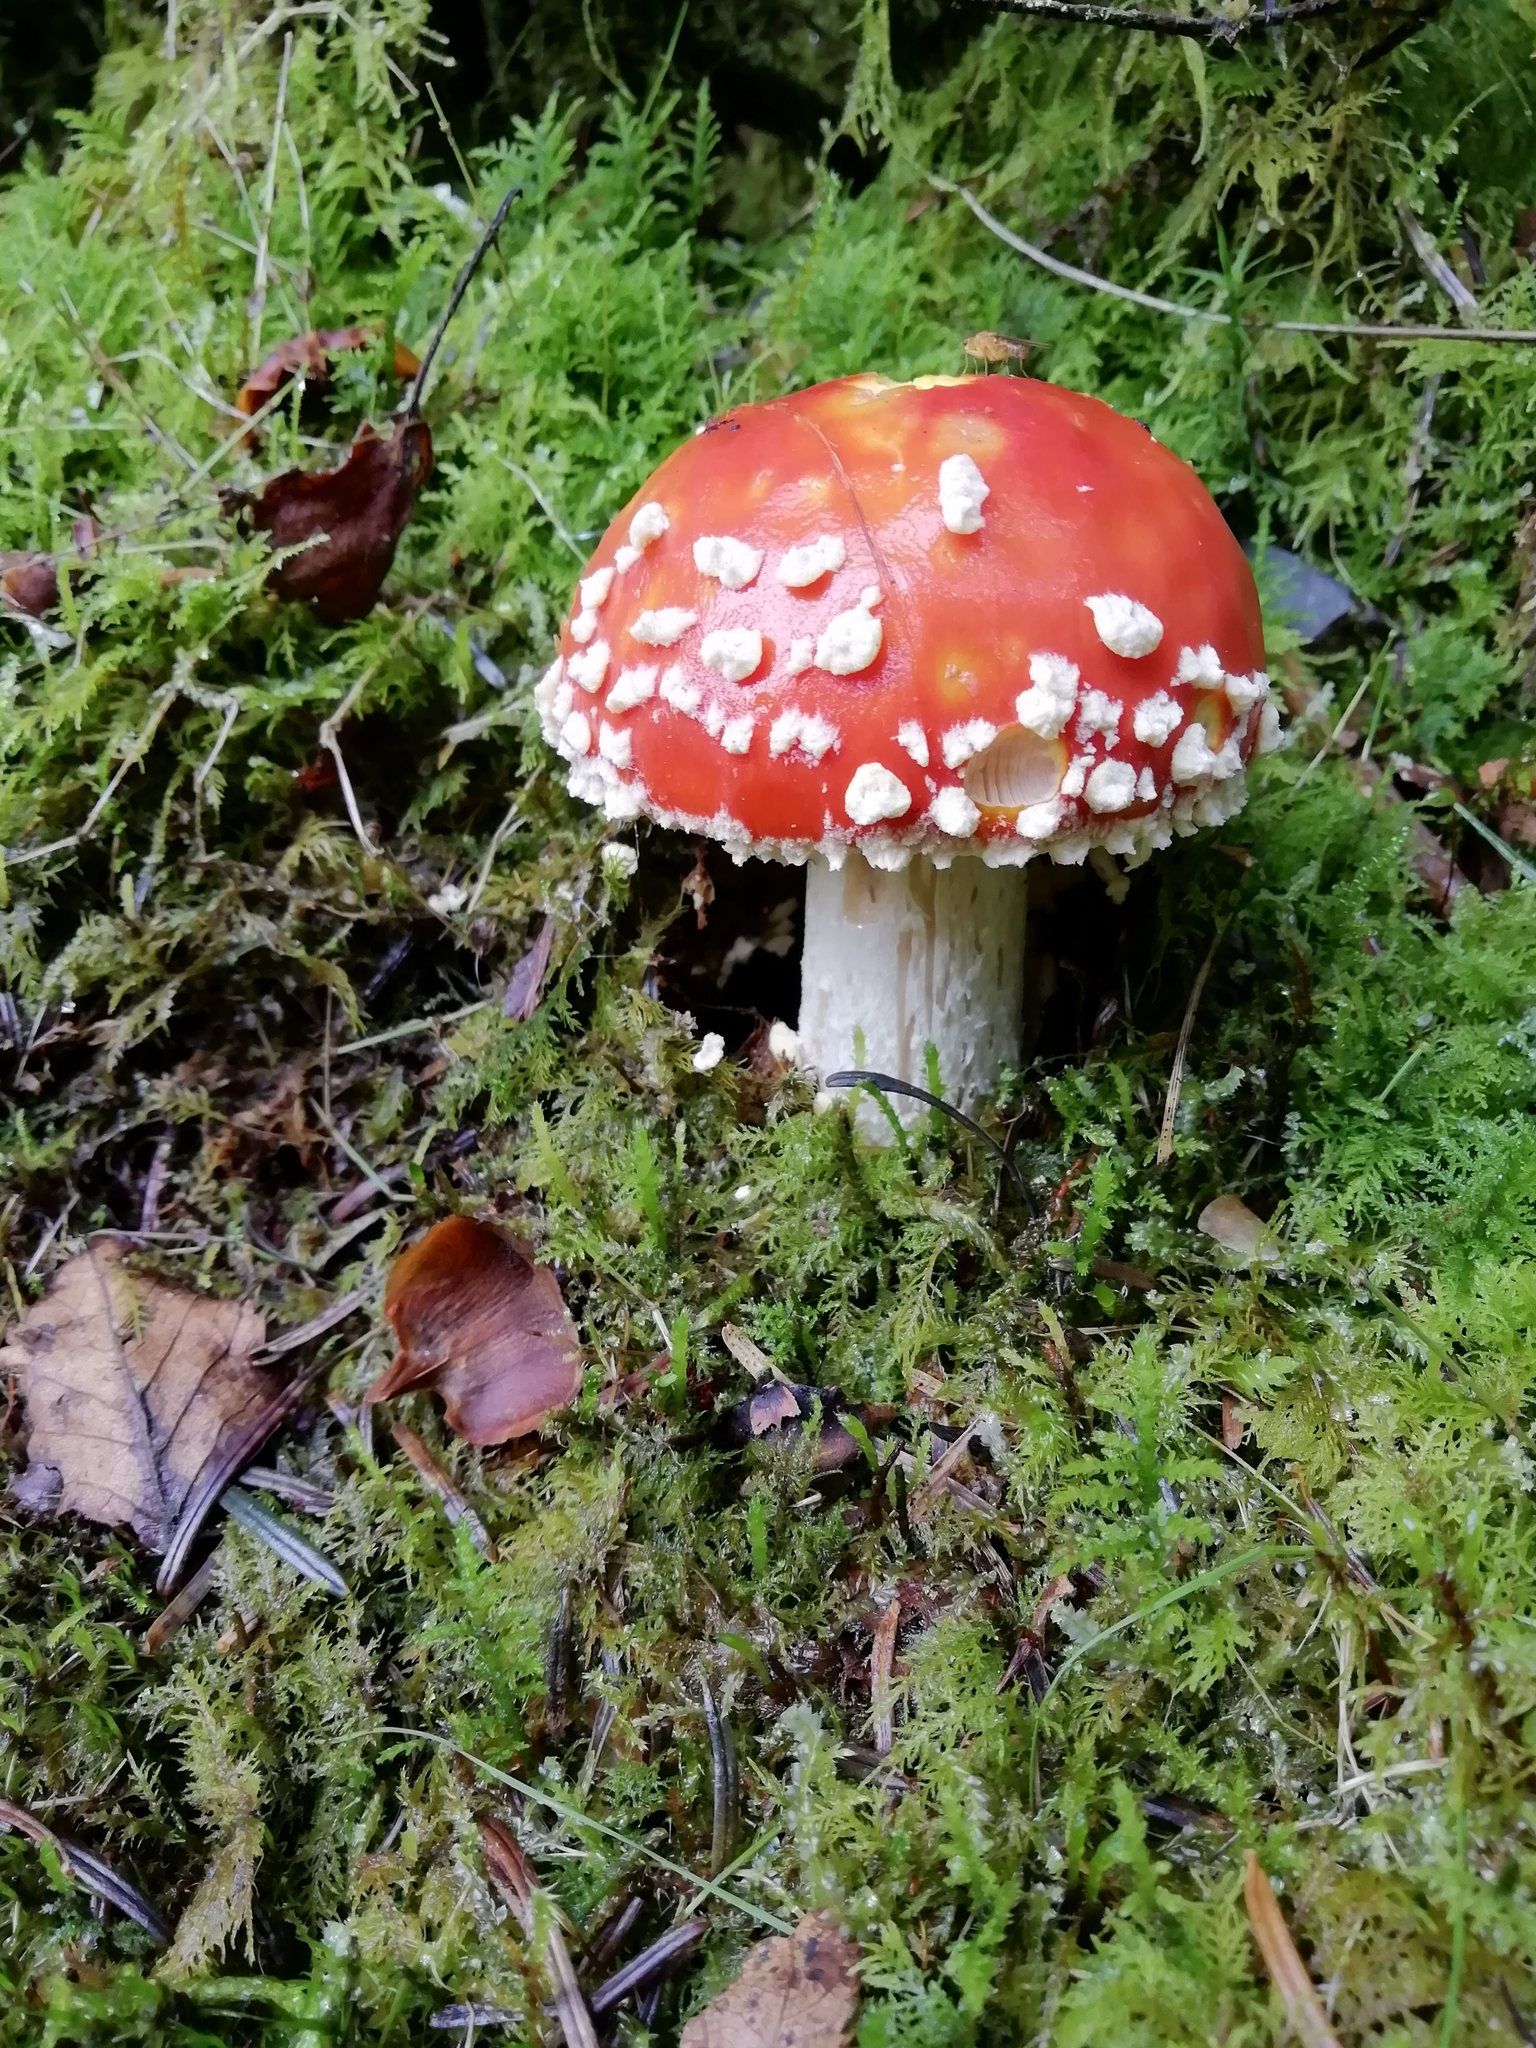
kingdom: Fungi
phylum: Basidiomycota
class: Agaricomycetes
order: Agaricales
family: Amanitaceae
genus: Amanita
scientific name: Amanita muscaria
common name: Fly agaric
